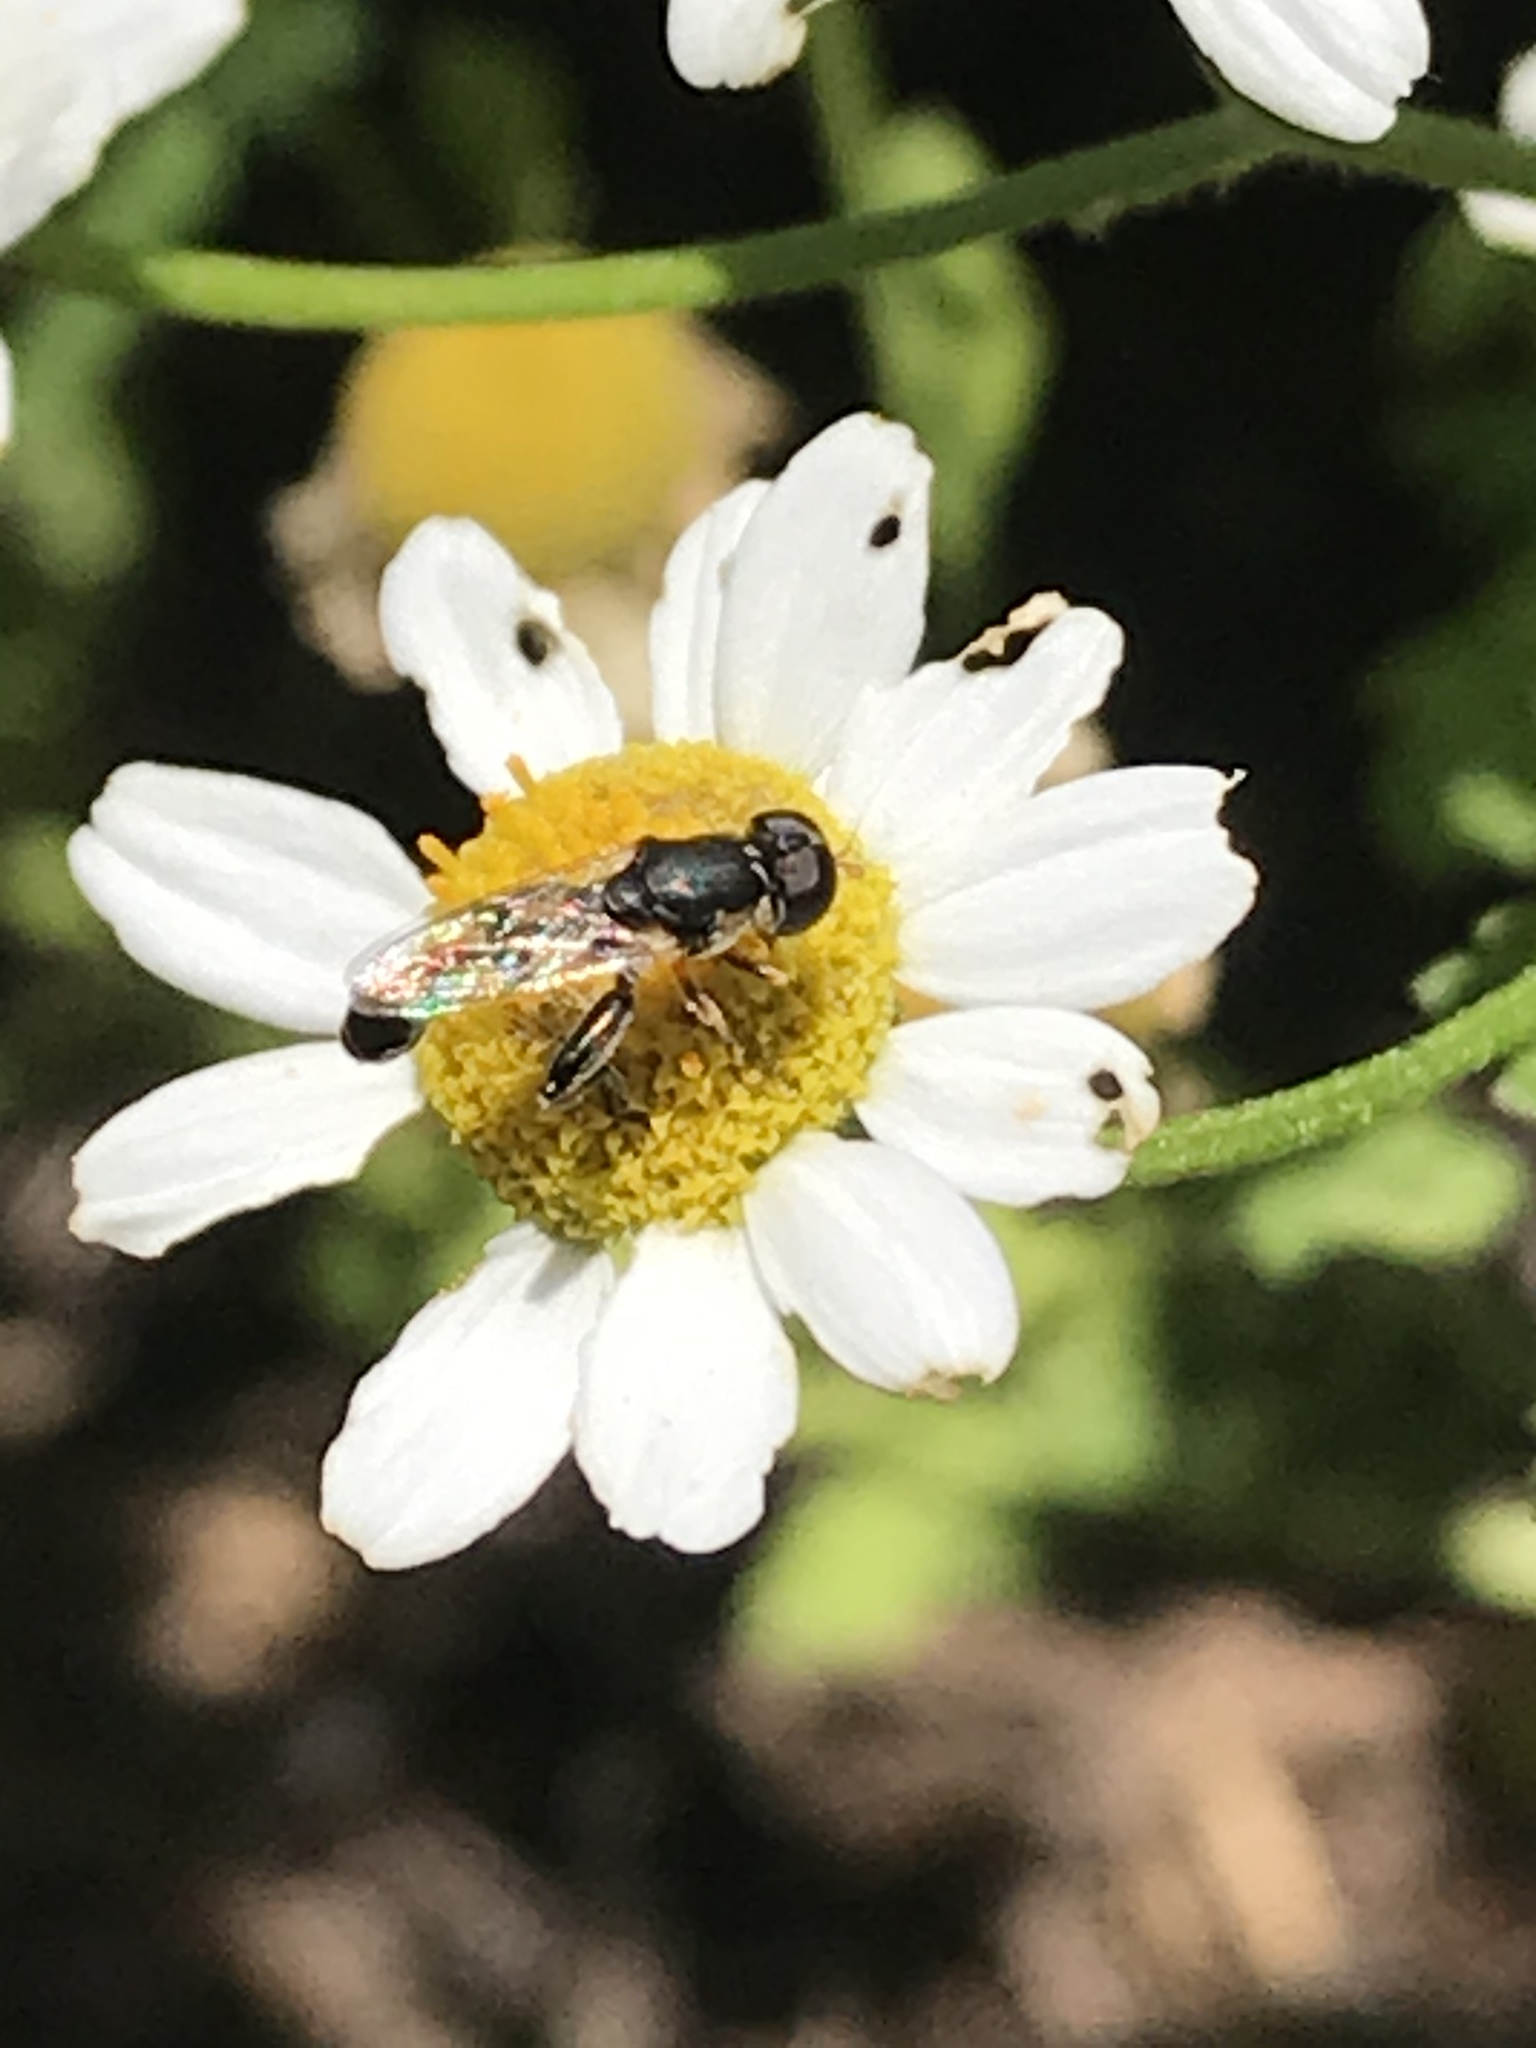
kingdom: Animalia
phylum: Arthropoda
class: Insecta
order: Diptera
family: Syrphidae
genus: Syritta
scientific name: Syritta pipiens
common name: Hover fly
